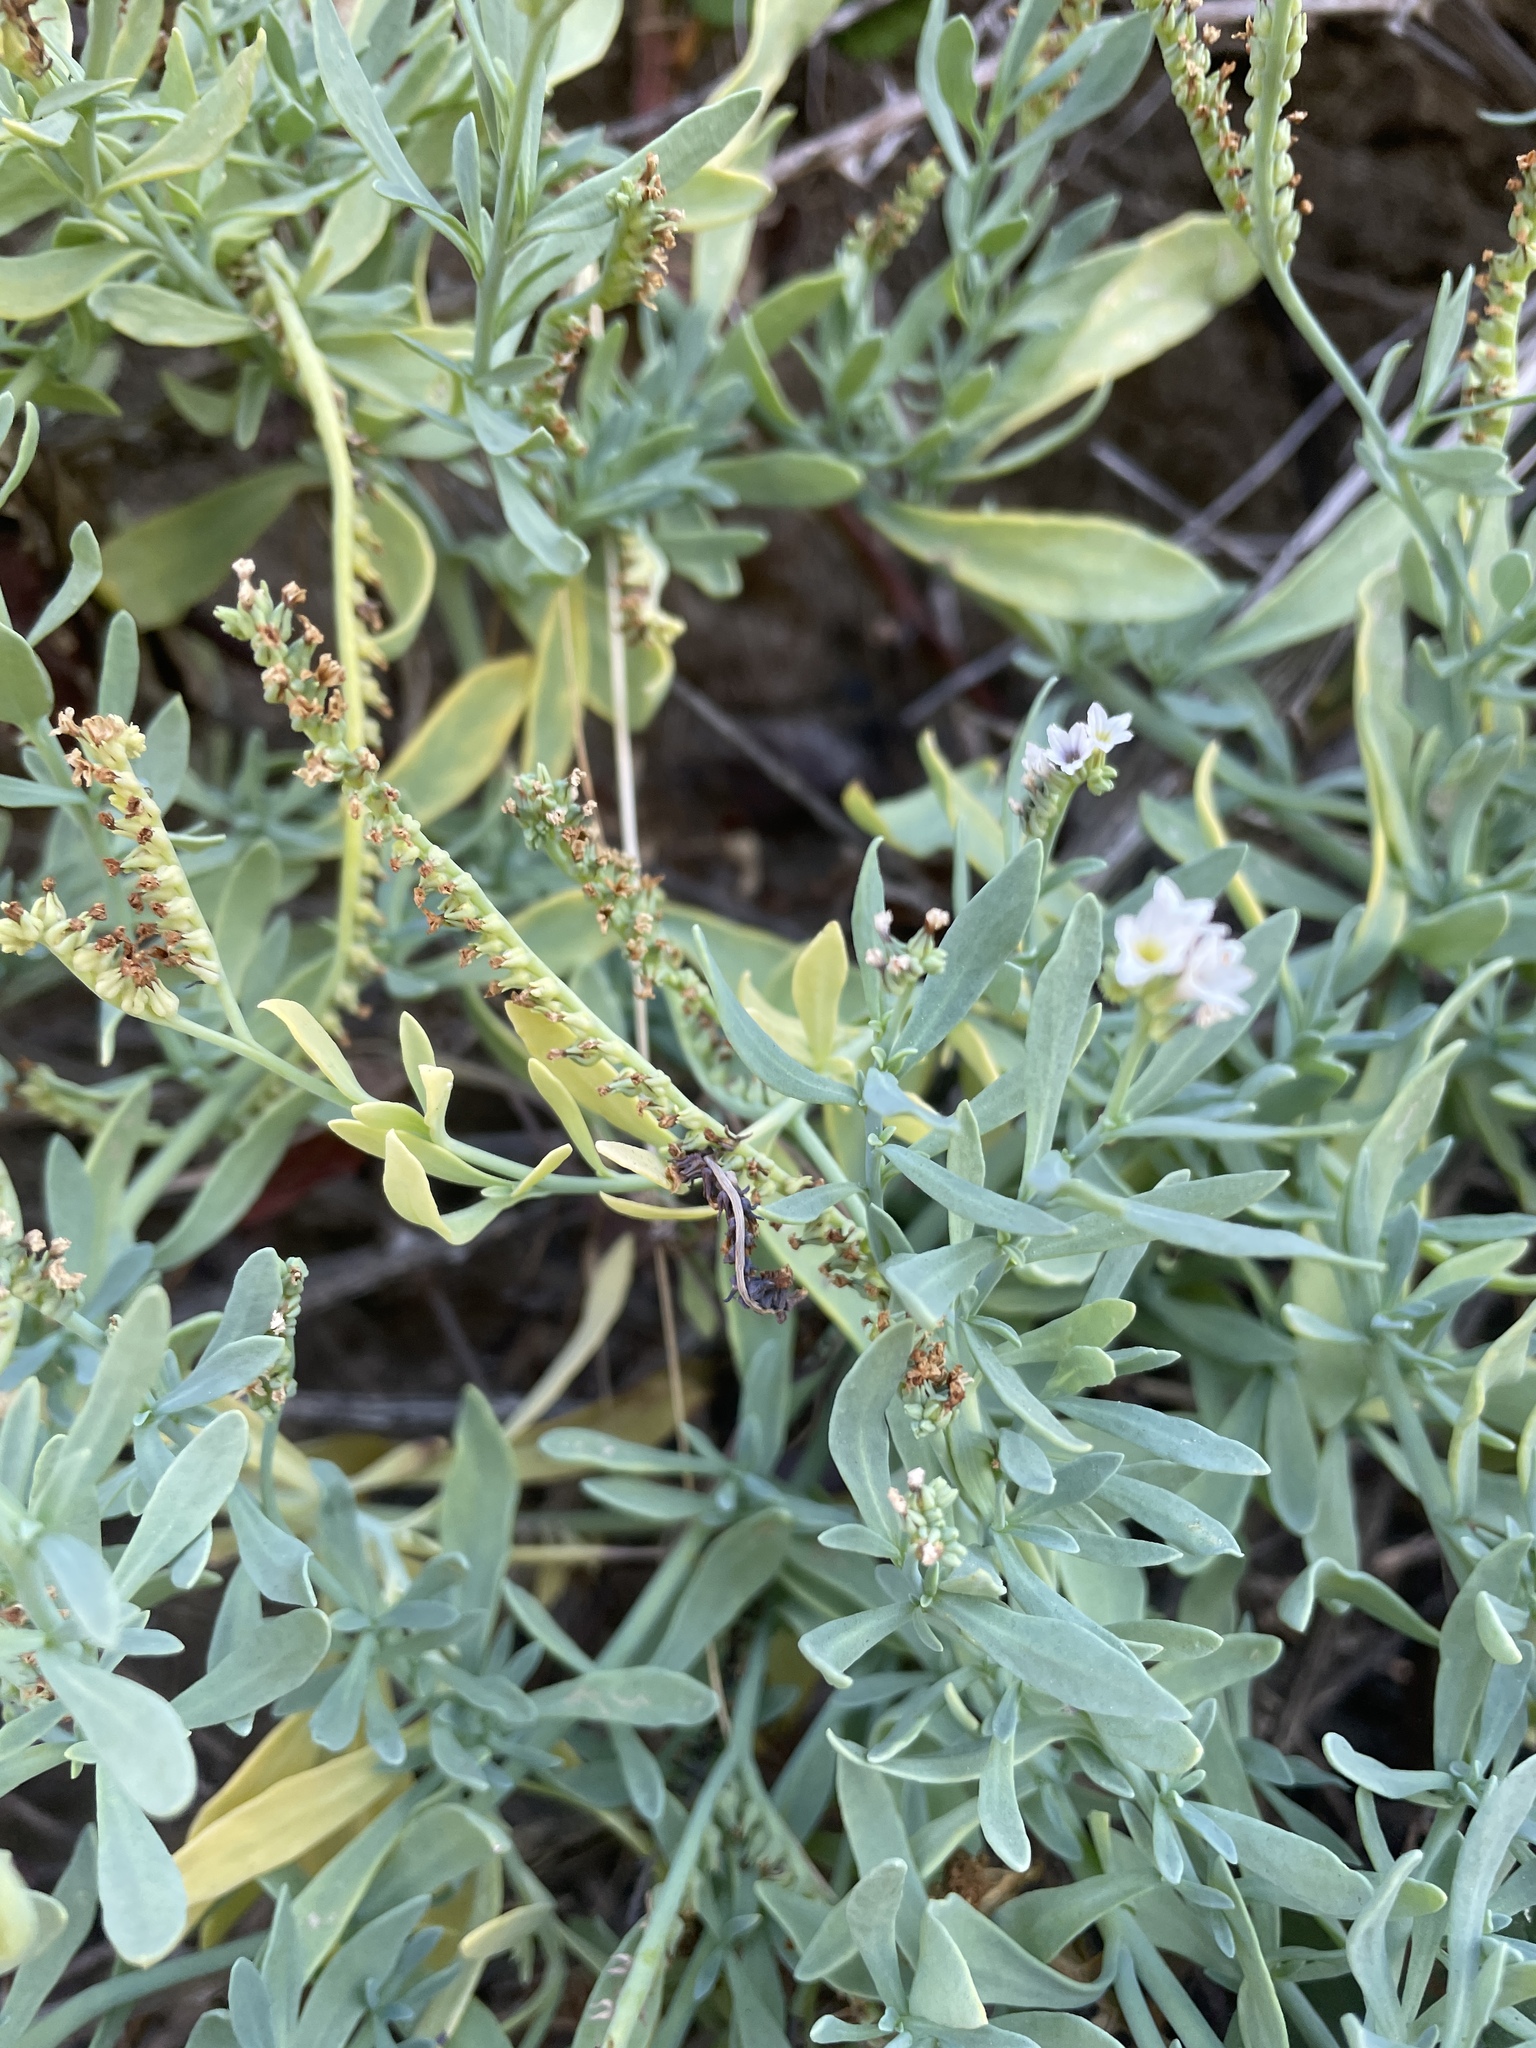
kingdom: Plantae
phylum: Tracheophyta
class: Magnoliopsida
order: Boraginales
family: Heliotropiaceae
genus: Heliotropium
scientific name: Heliotropium curassavicum
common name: Seaside heliotrope
